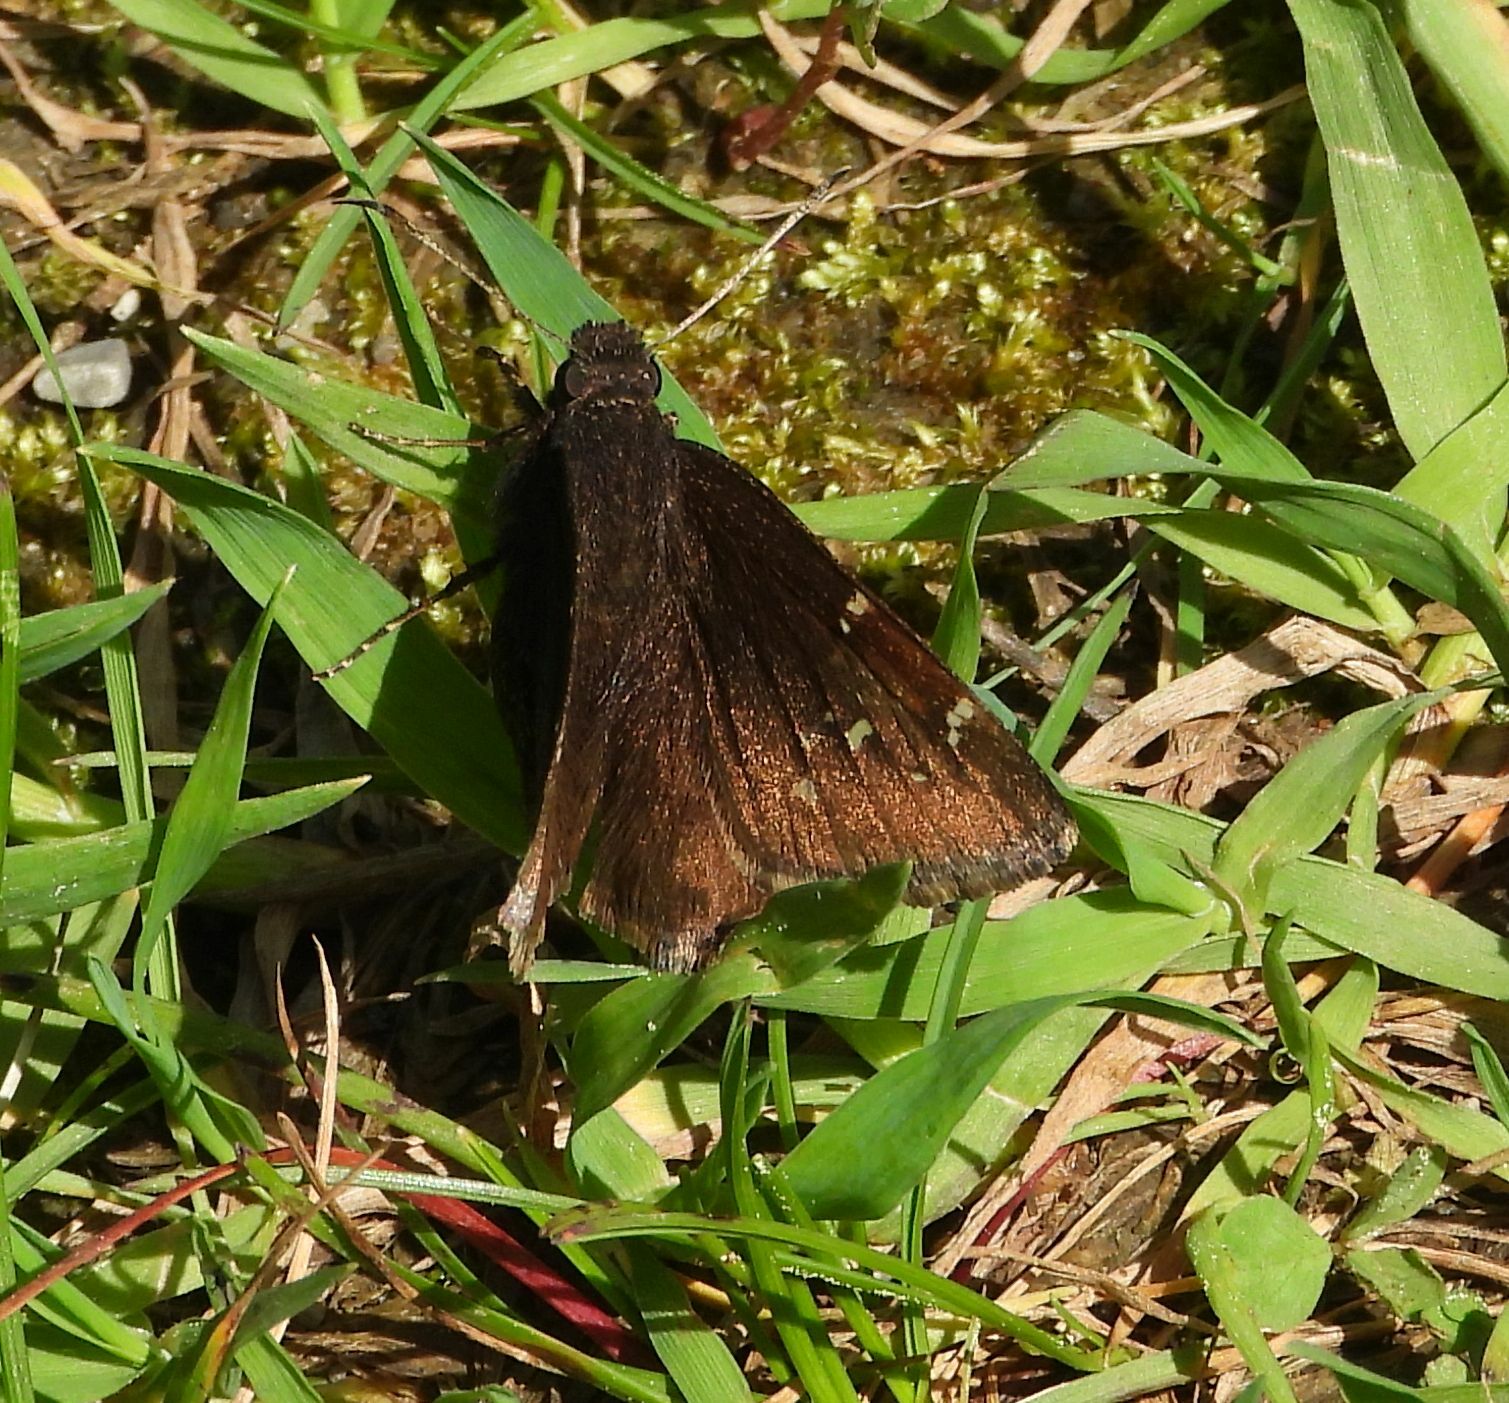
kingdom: Animalia
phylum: Arthropoda
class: Insecta
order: Lepidoptera
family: Hesperiidae
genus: Thorybes
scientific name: Thorybes pylades
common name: Northern cloudywing
